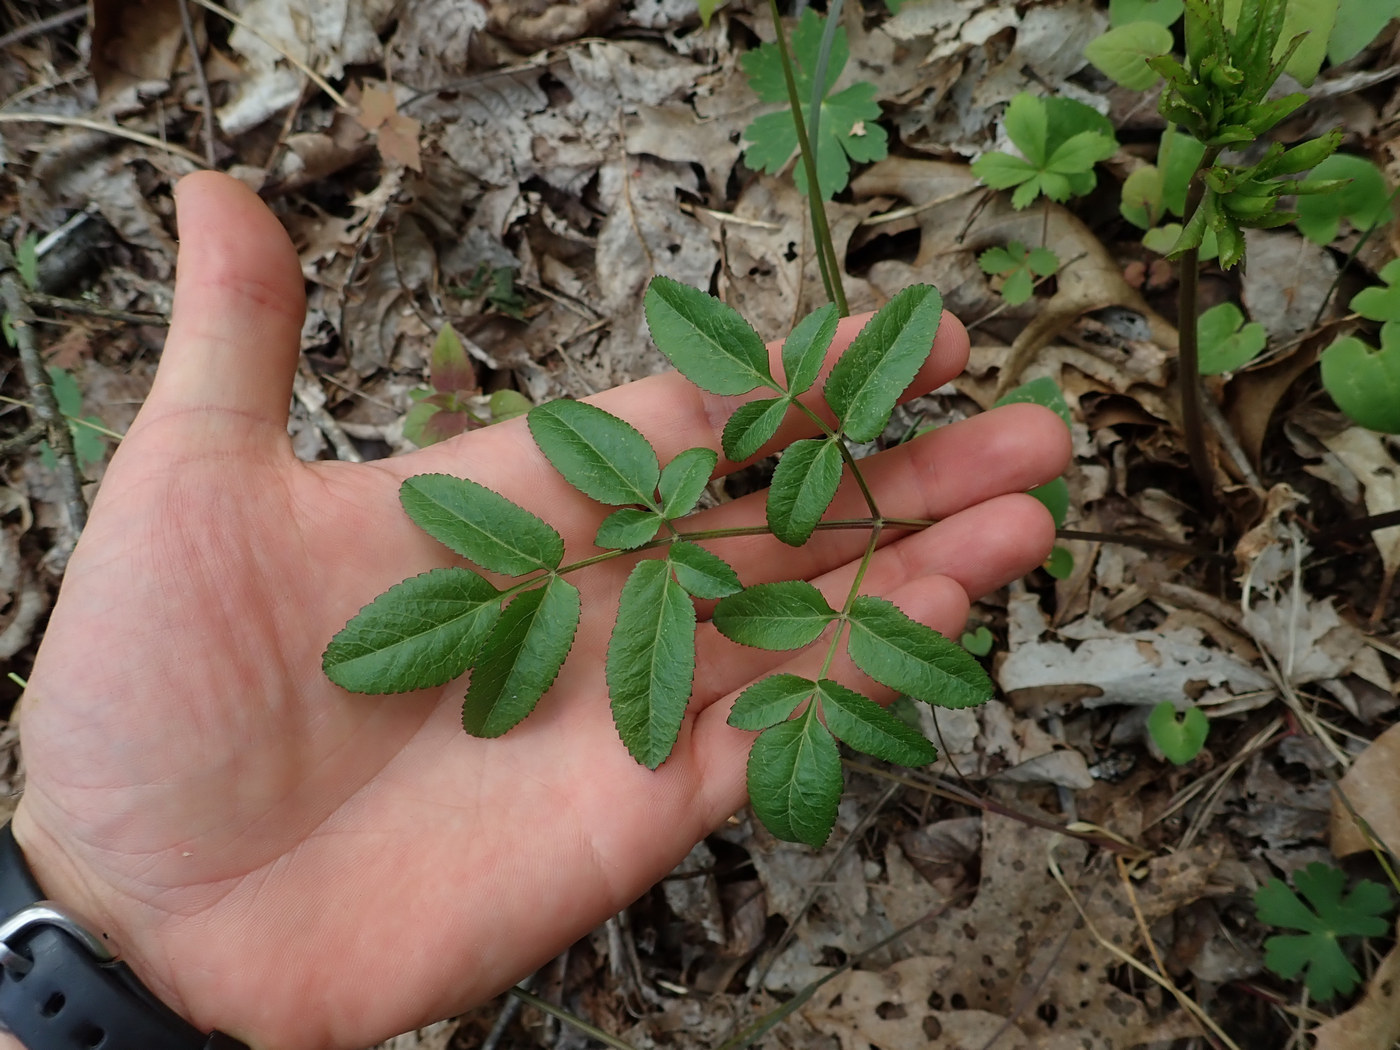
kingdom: Plantae
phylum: Tracheophyta
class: Magnoliopsida
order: Apiales
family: Apiaceae
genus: Angelica
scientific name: Angelica venenosa
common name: Hairy angelica
